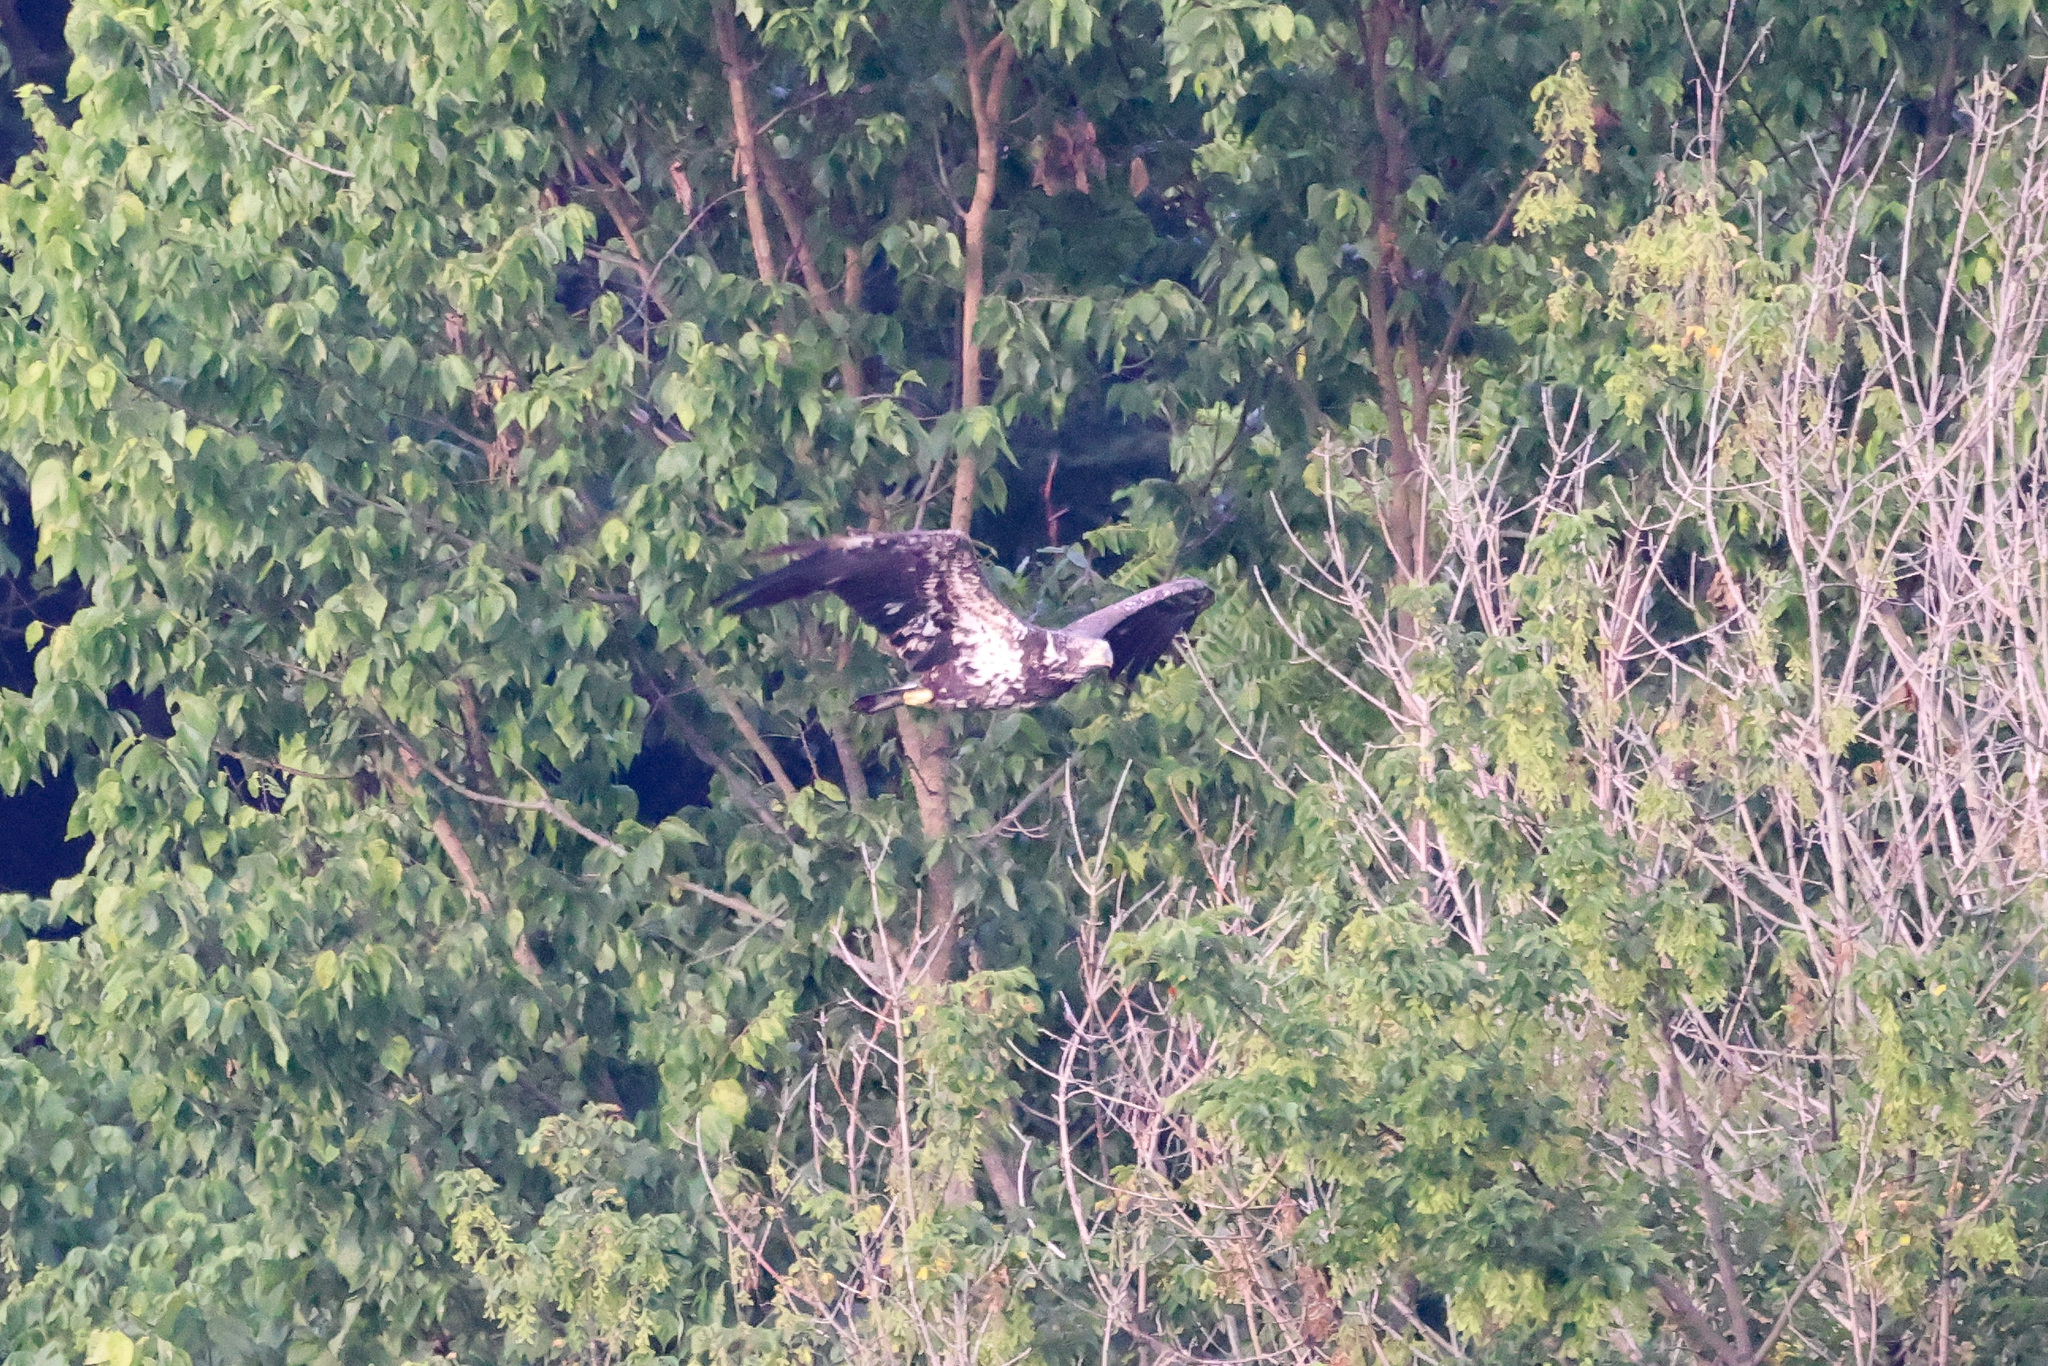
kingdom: Animalia
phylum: Chordata
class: Aves
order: Accipitriformes
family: Accipitridae
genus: Haliaeetus
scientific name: Haliaeetus leucocephalus
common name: Bald eagle
